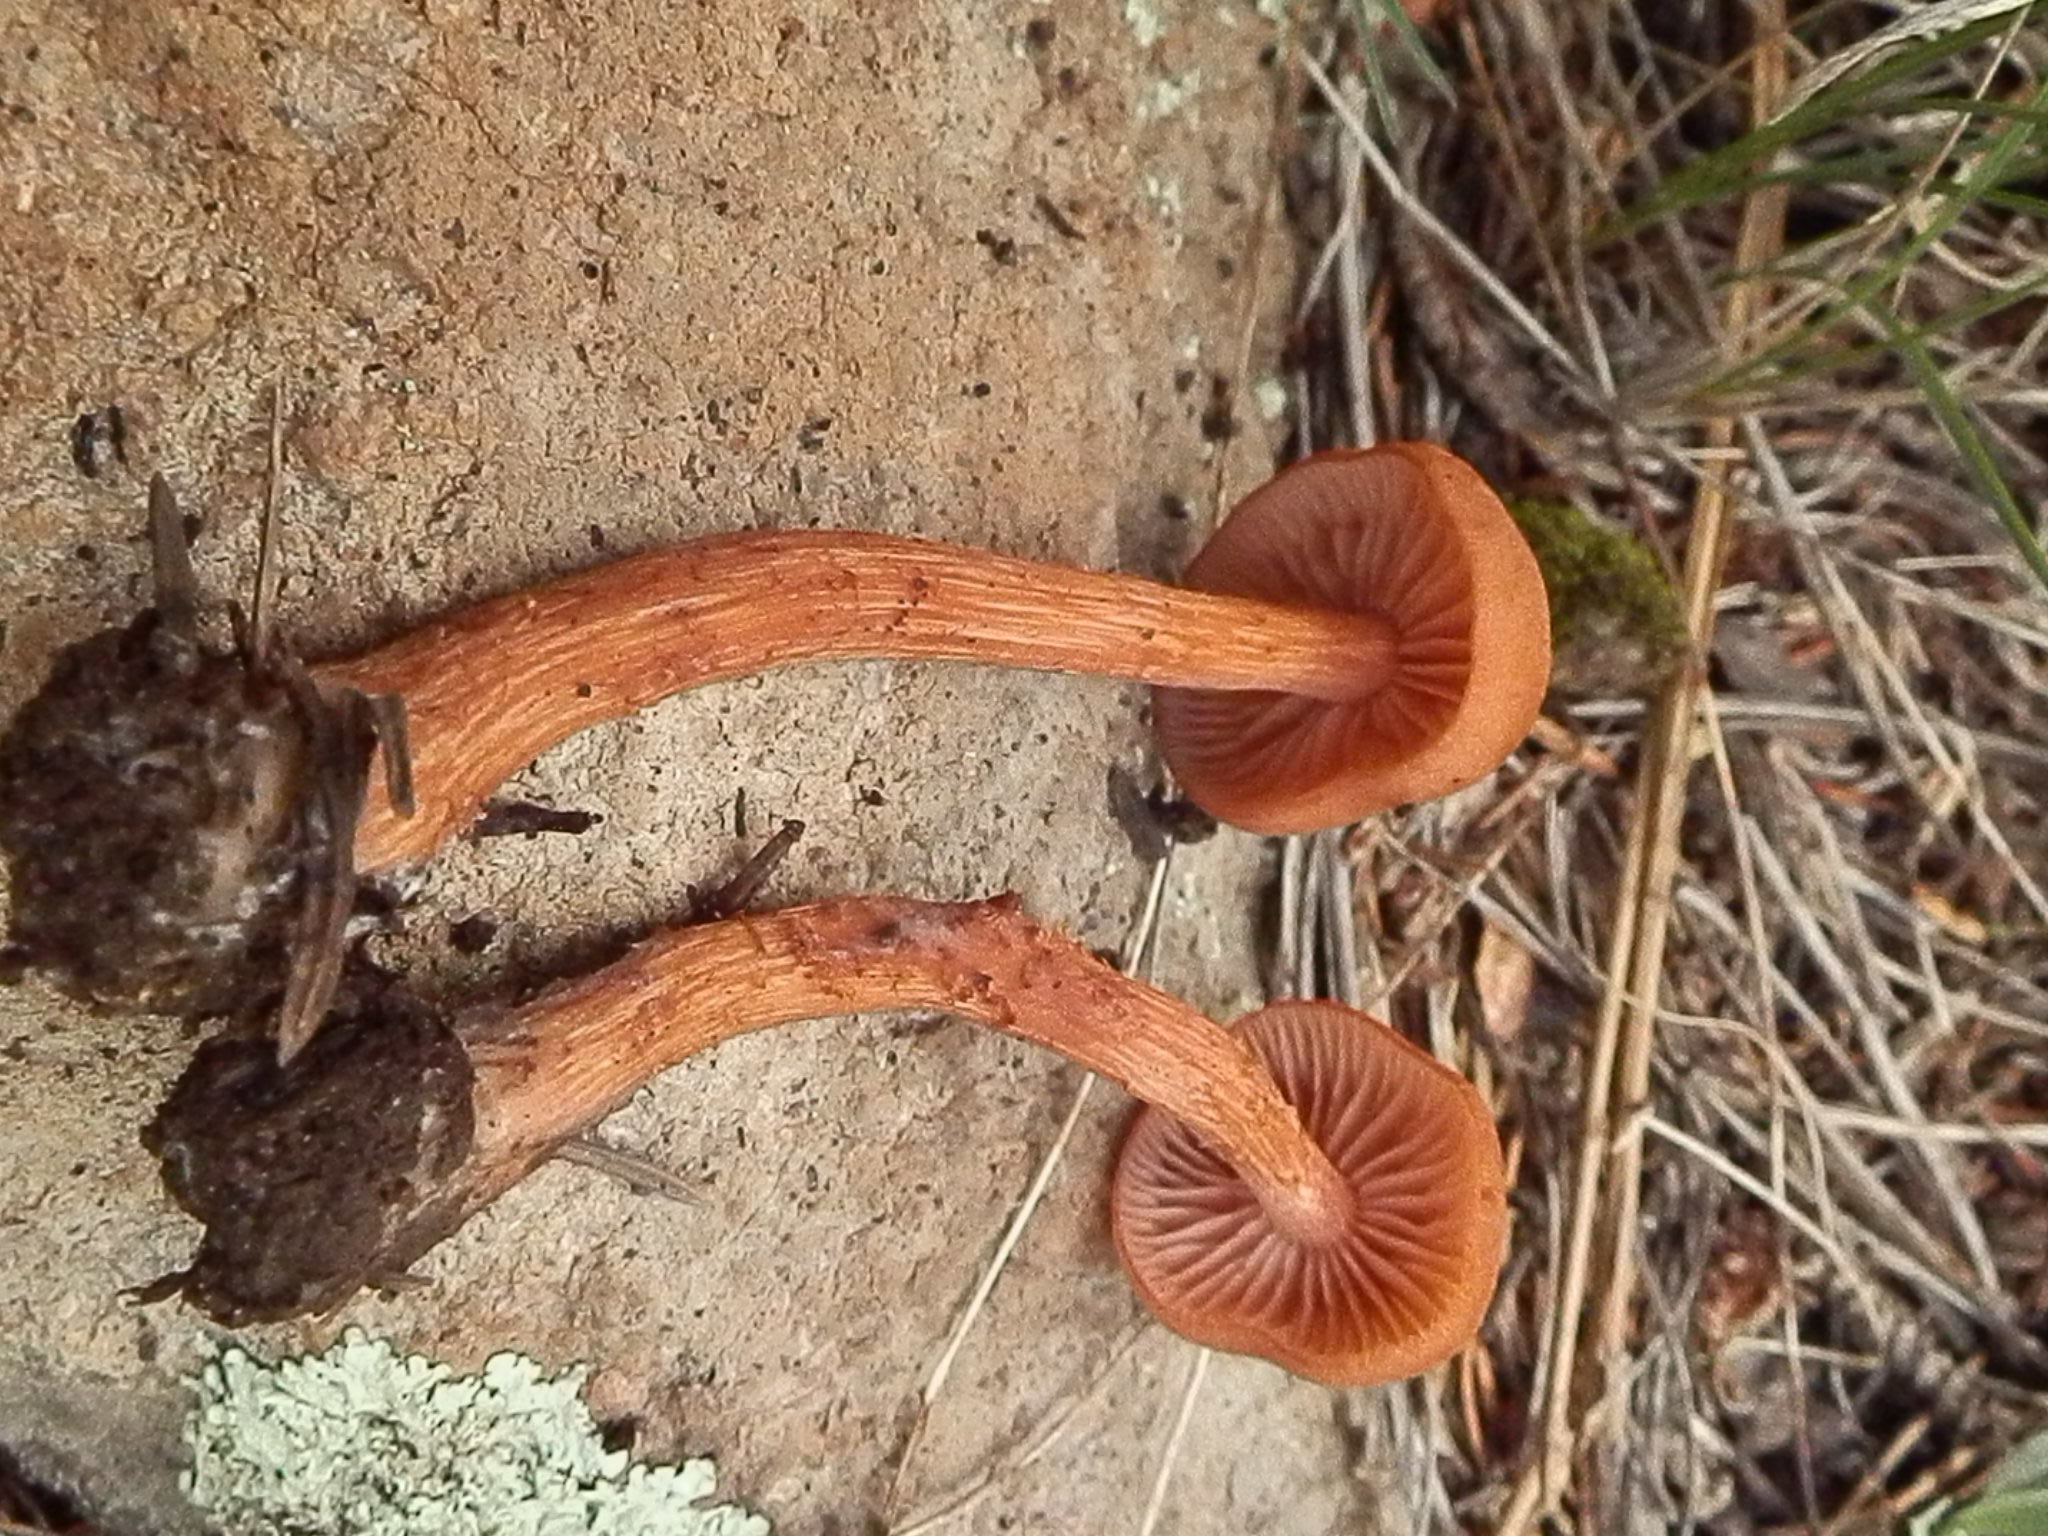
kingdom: Fungi
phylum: Basidiomycota
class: Agaricomycetes
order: Agaricales
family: Hydnangiaceae
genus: Laccaria
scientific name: Laccaria nobilis
